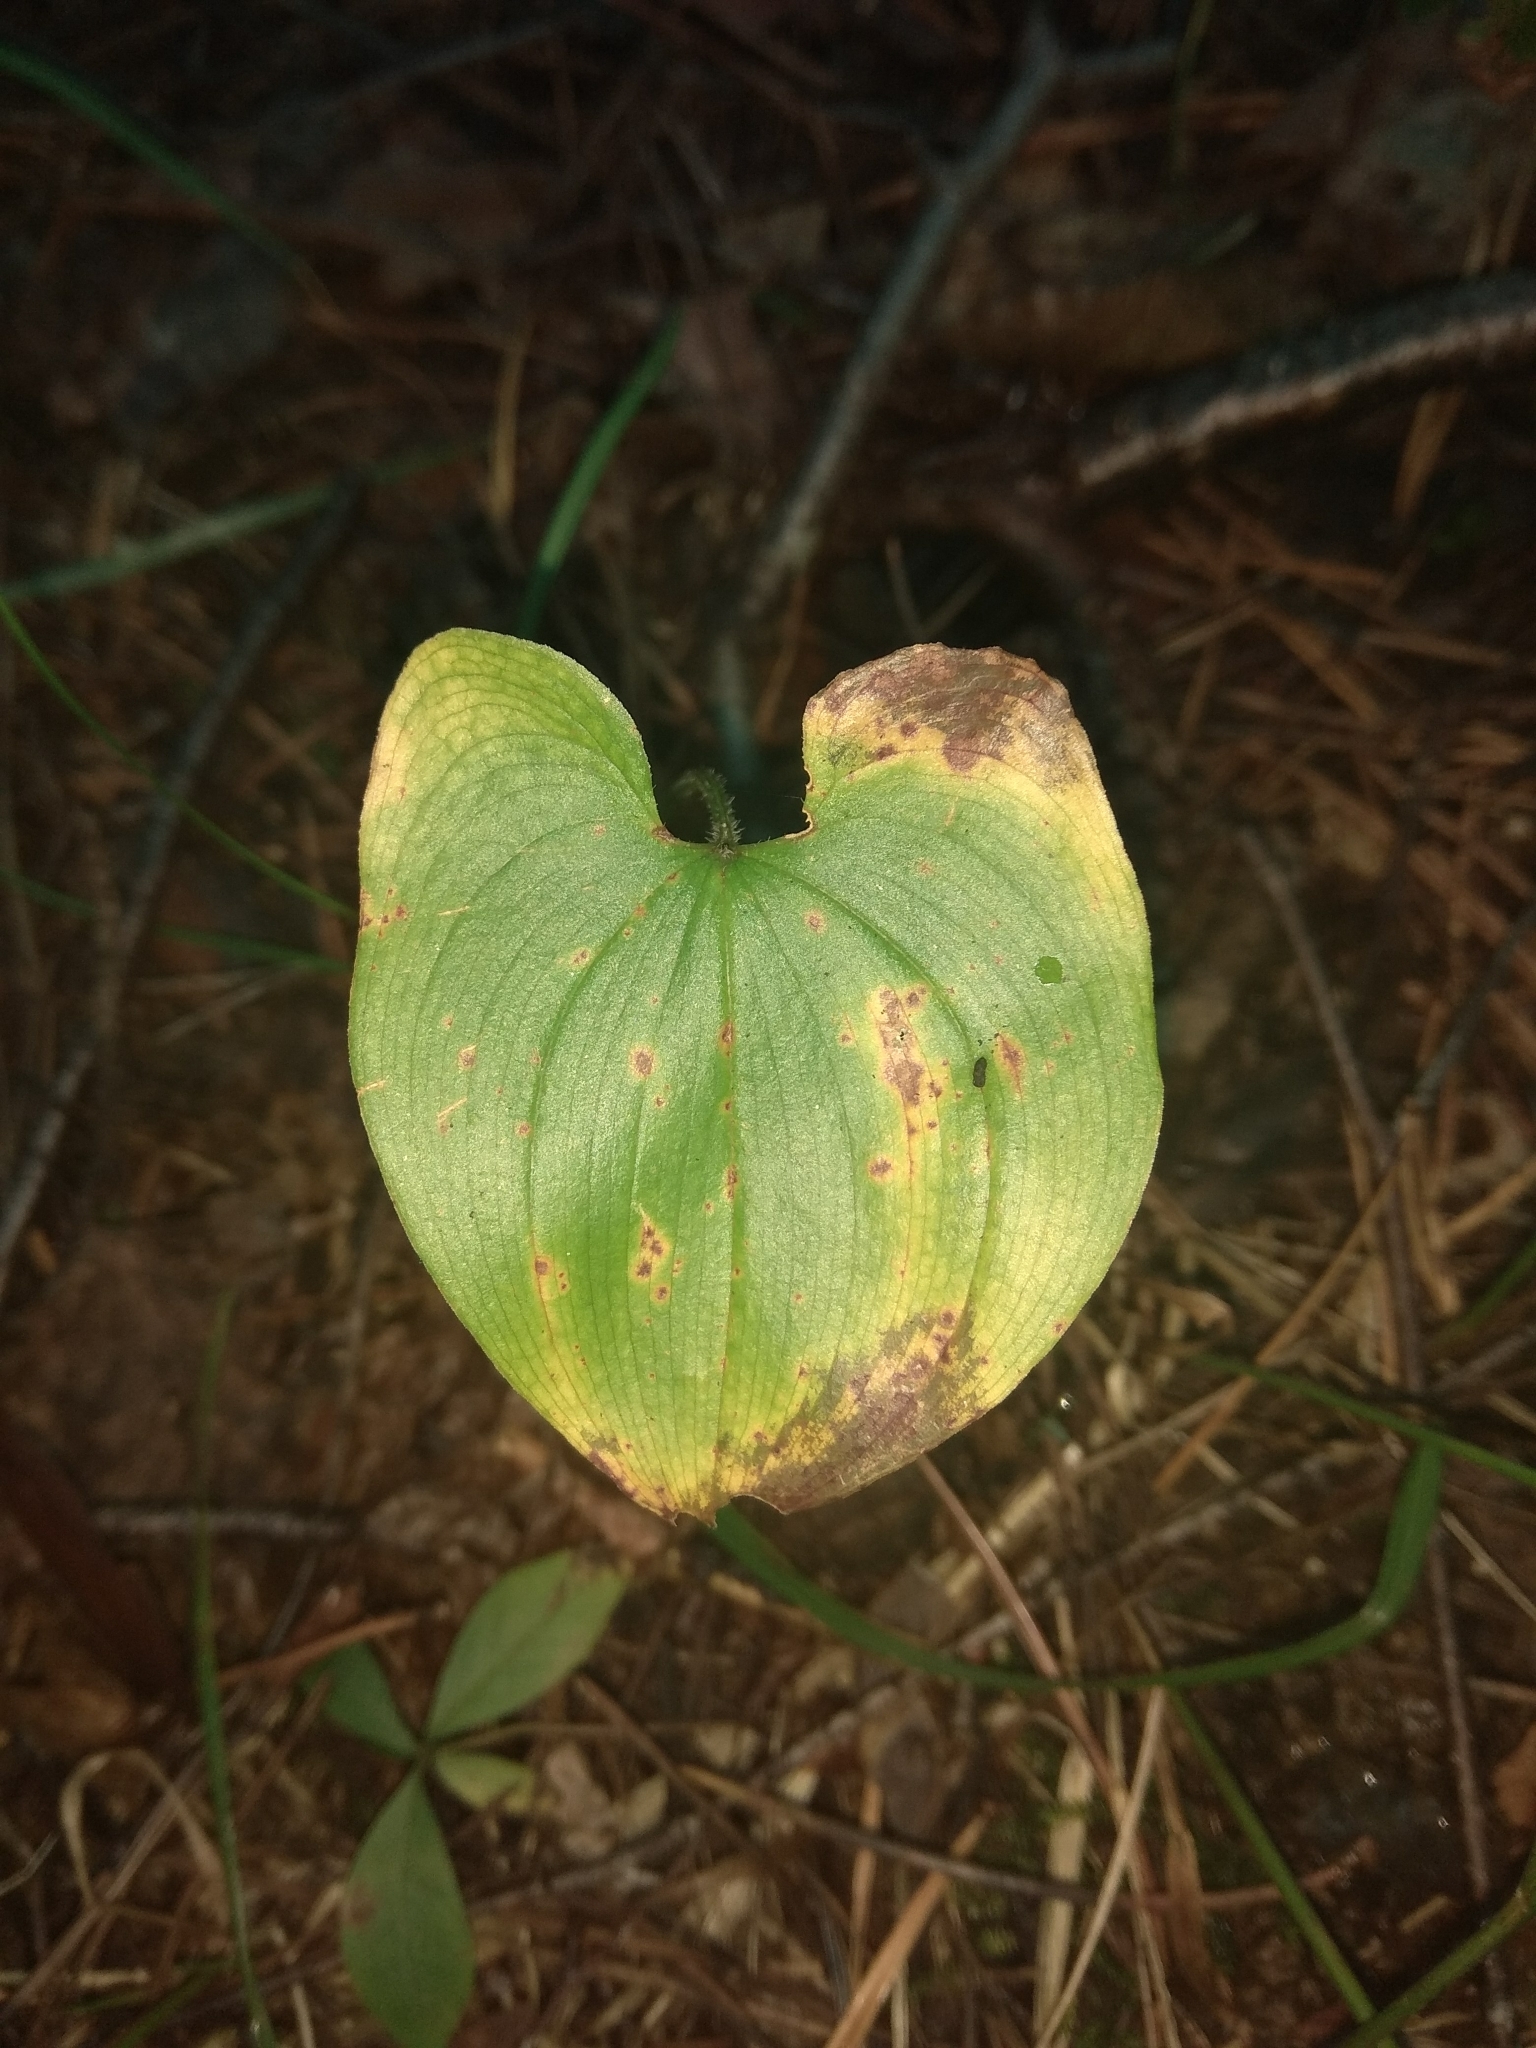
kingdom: Plantae
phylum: Tracheophyta
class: Liliopsida
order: Asparagales
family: Asparagaceae
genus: Maianthemum
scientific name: Maianthemum bifolium
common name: May lily
